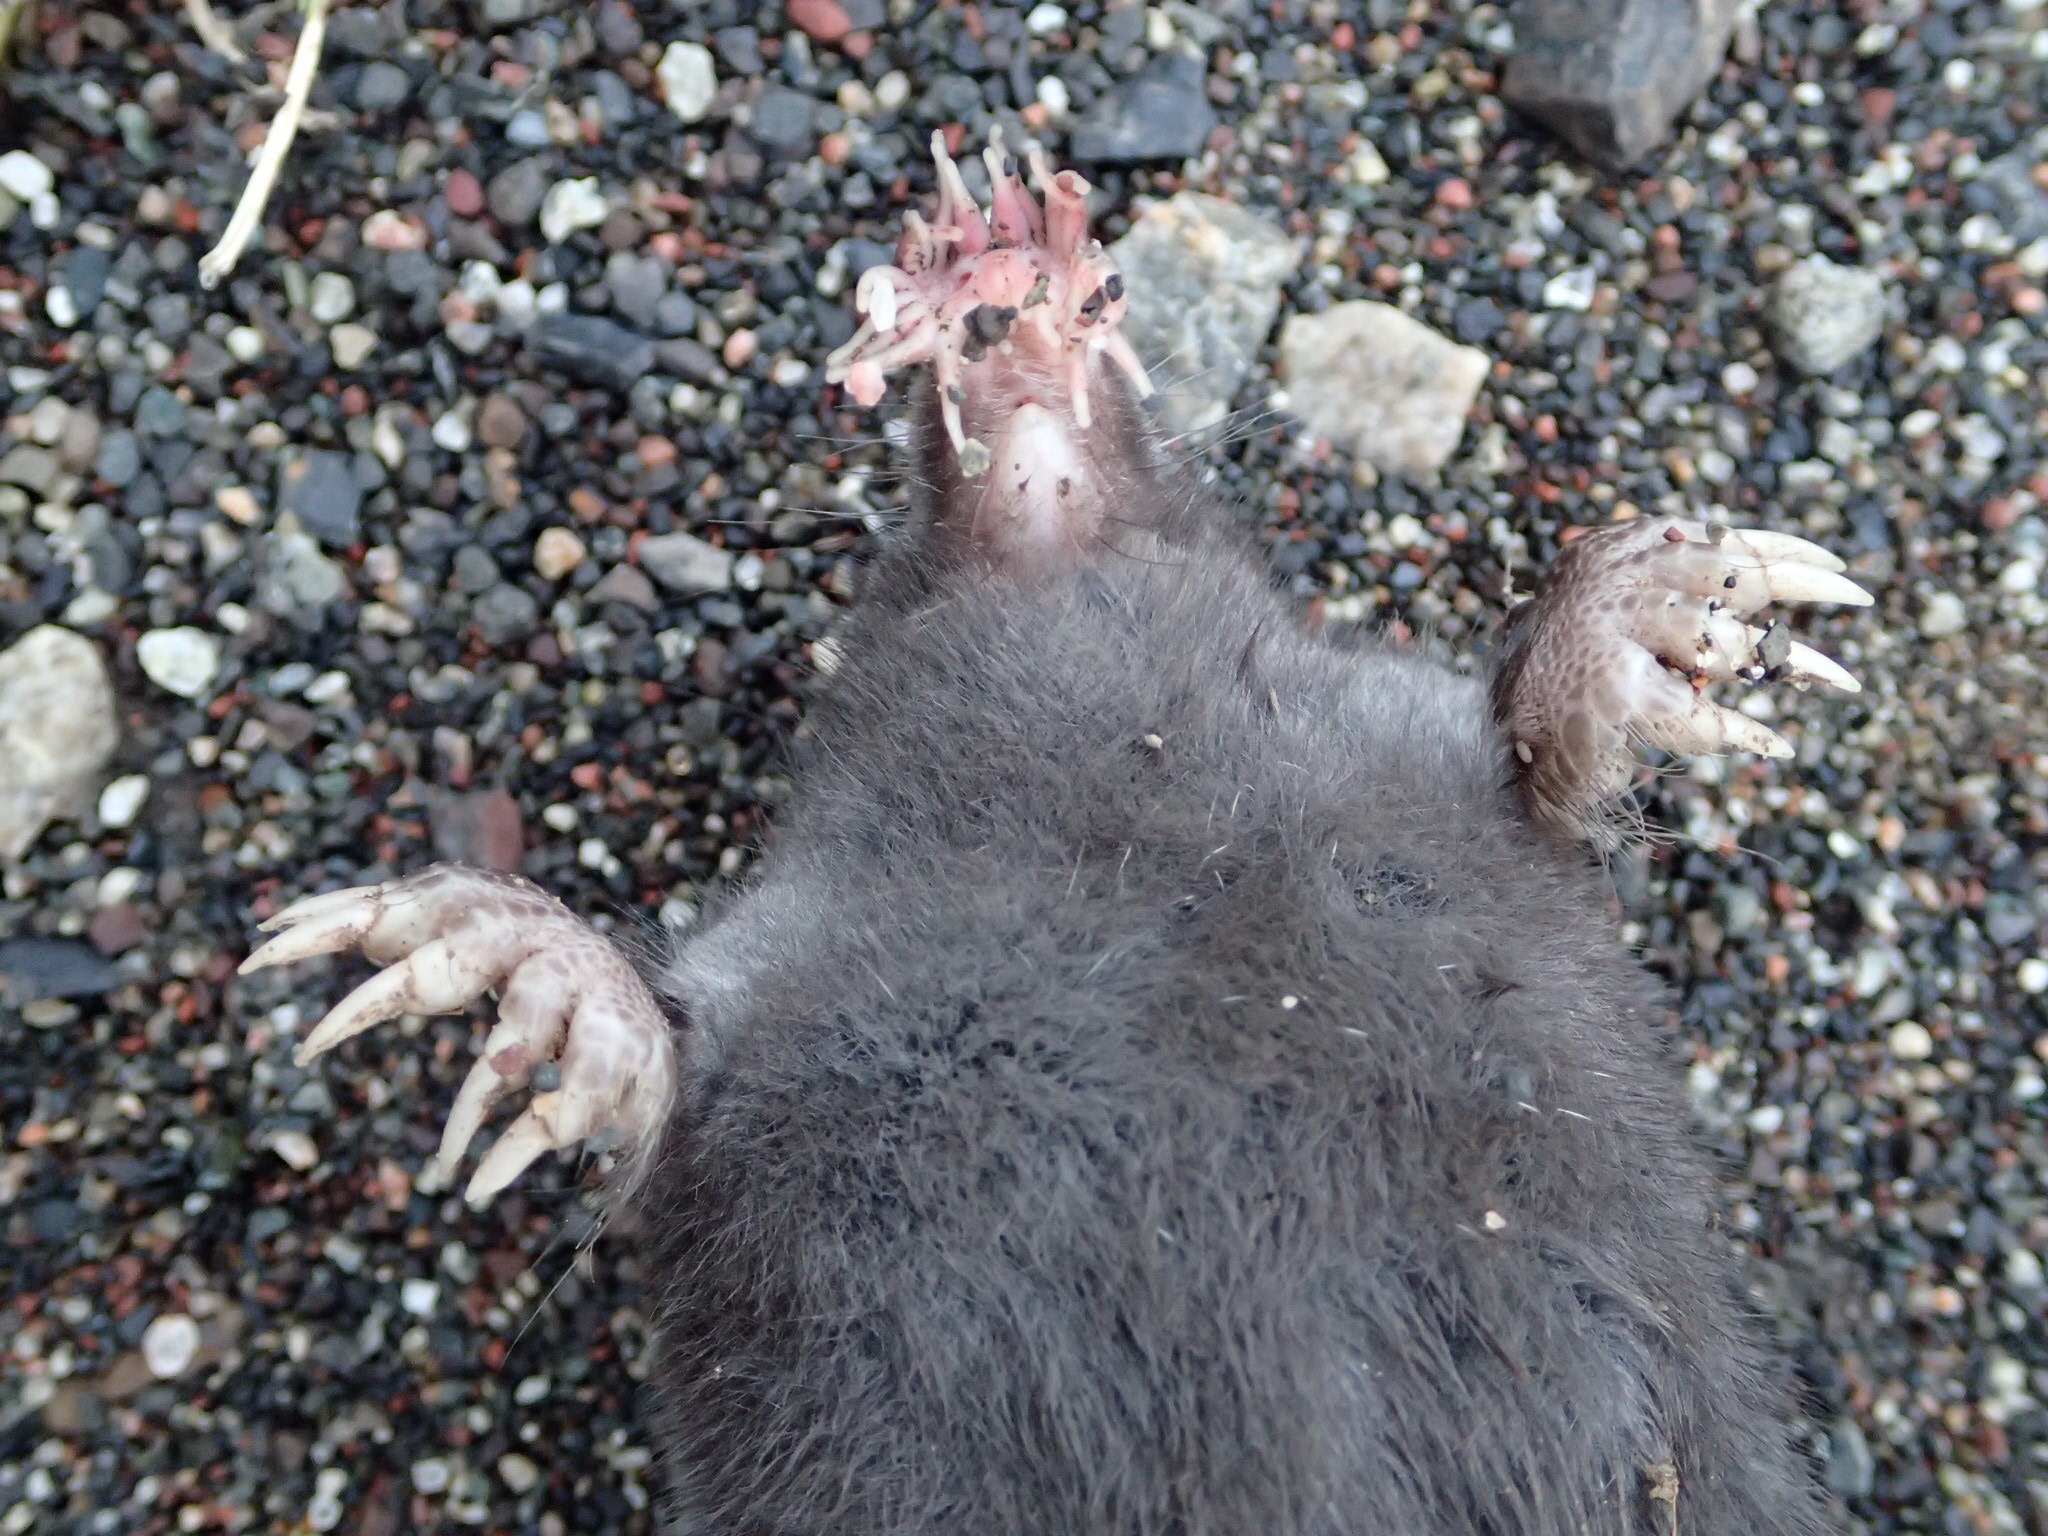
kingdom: Animalia
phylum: Chordata
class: Mammalia
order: Soricomorpha
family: Talpidae
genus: Condylura
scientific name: Condylura cristata
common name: Star-nosed mole
